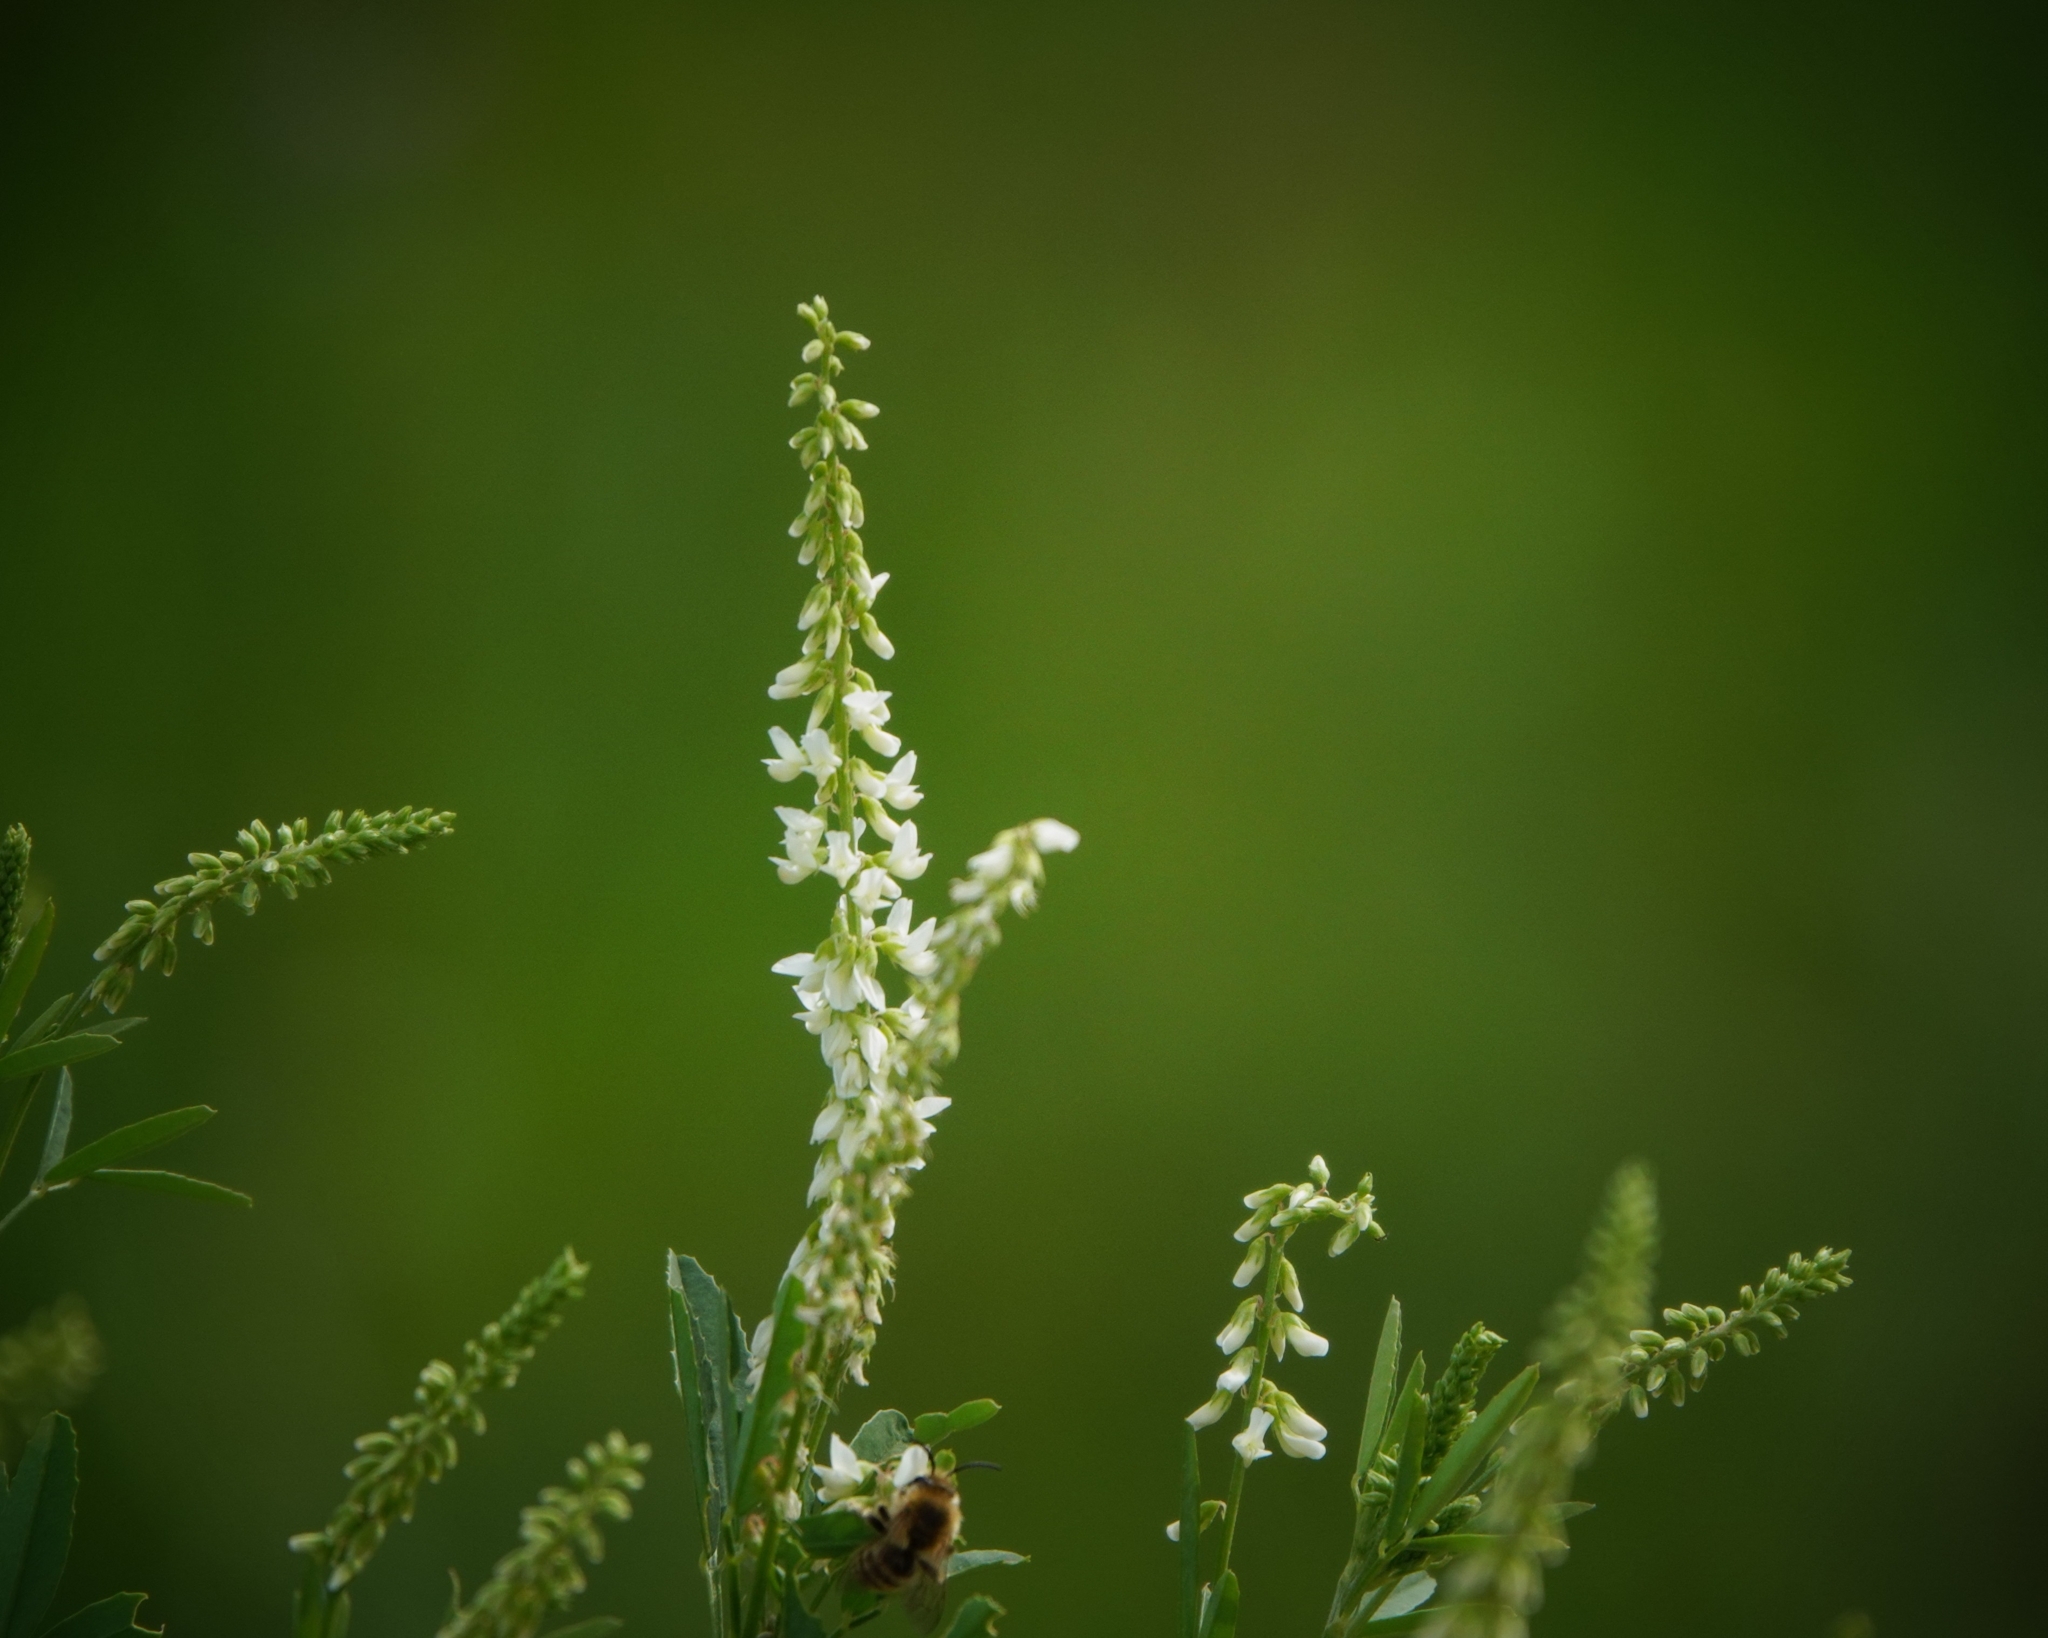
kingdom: Plantae
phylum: Tracheophyta
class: Magnoliopsida
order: Fabales
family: Fabaceae
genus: Melilotus
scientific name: Melilotus albus
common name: White melilot
